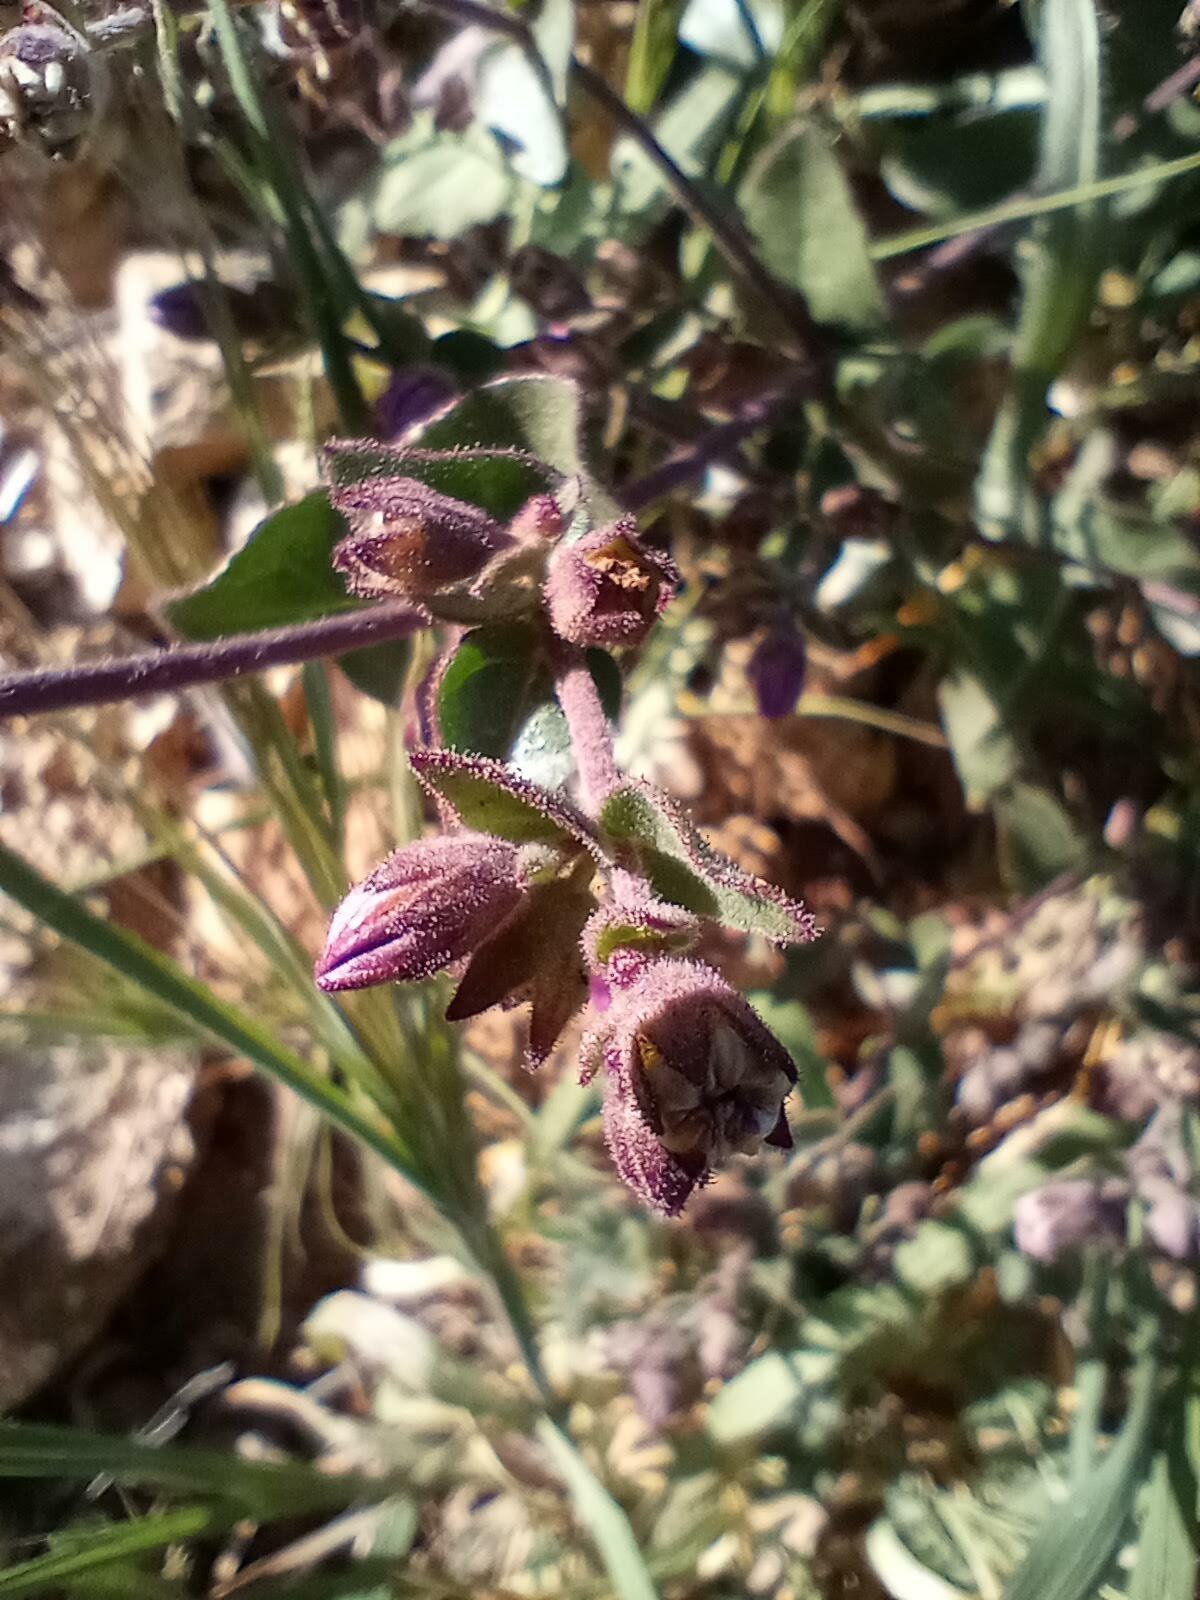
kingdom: Plantae
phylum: Tracheophyta
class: Magnoliopsida
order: Caryophyllales
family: Nyctaginaceae
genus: Mirabilis
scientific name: Mirabilis laevis
